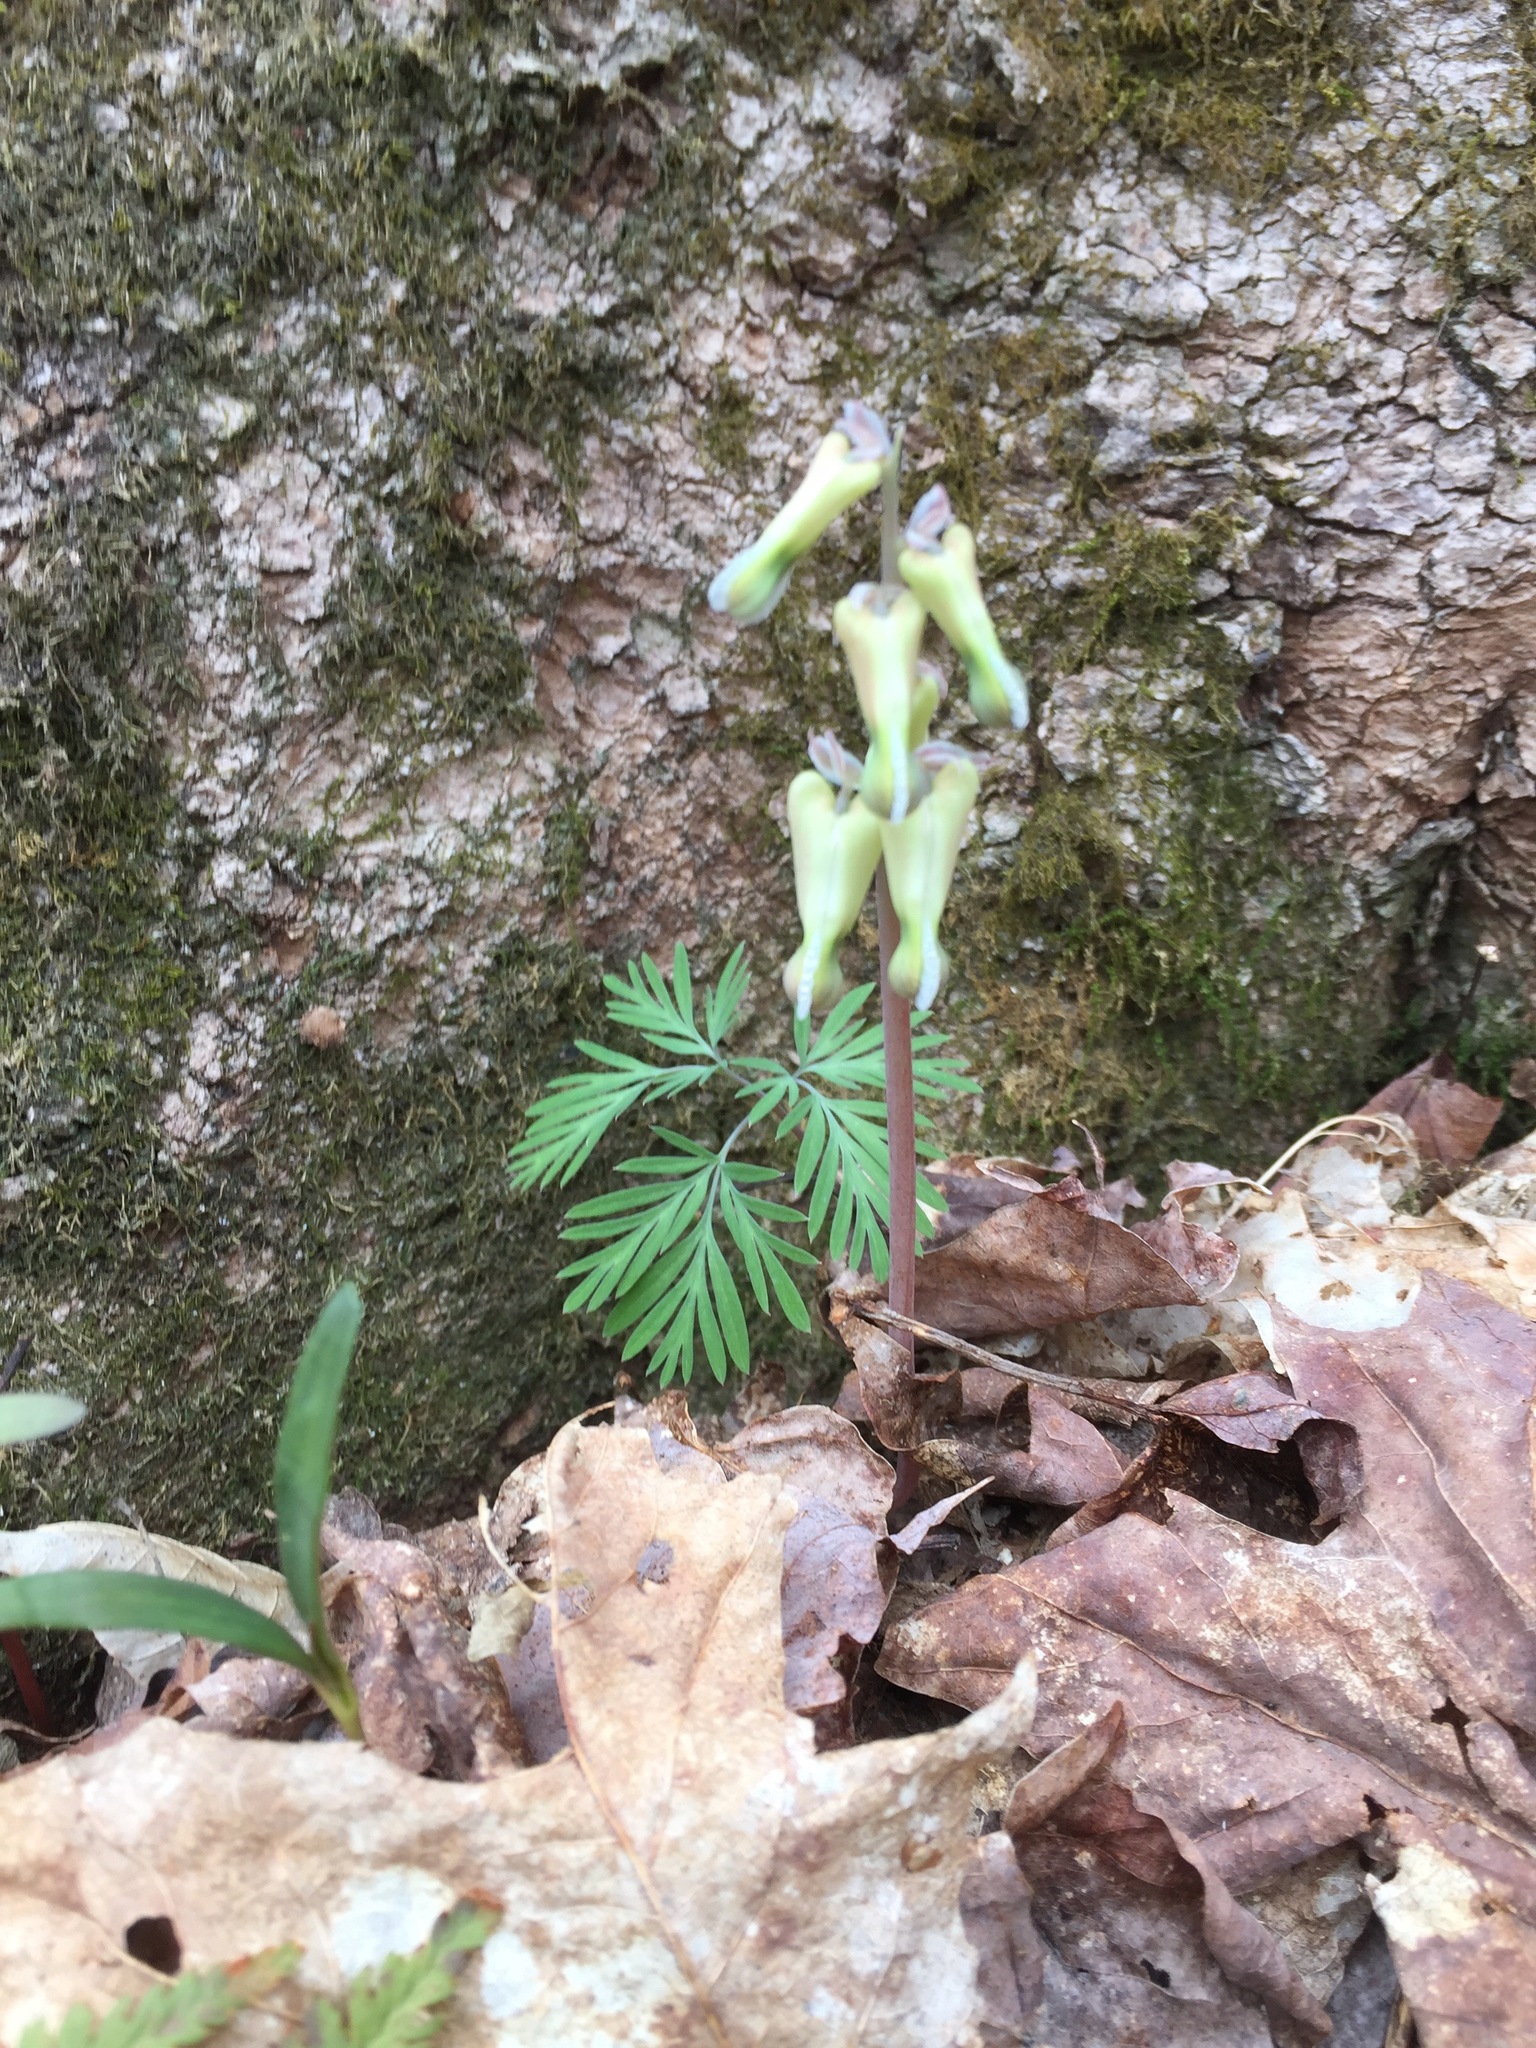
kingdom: Plantae
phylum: Tracheophyta
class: Magnoliopsida
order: Ranunculales
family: Papaveraceae
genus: Dicentra
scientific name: Dicentra canadensis
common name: Squirrel-corn
